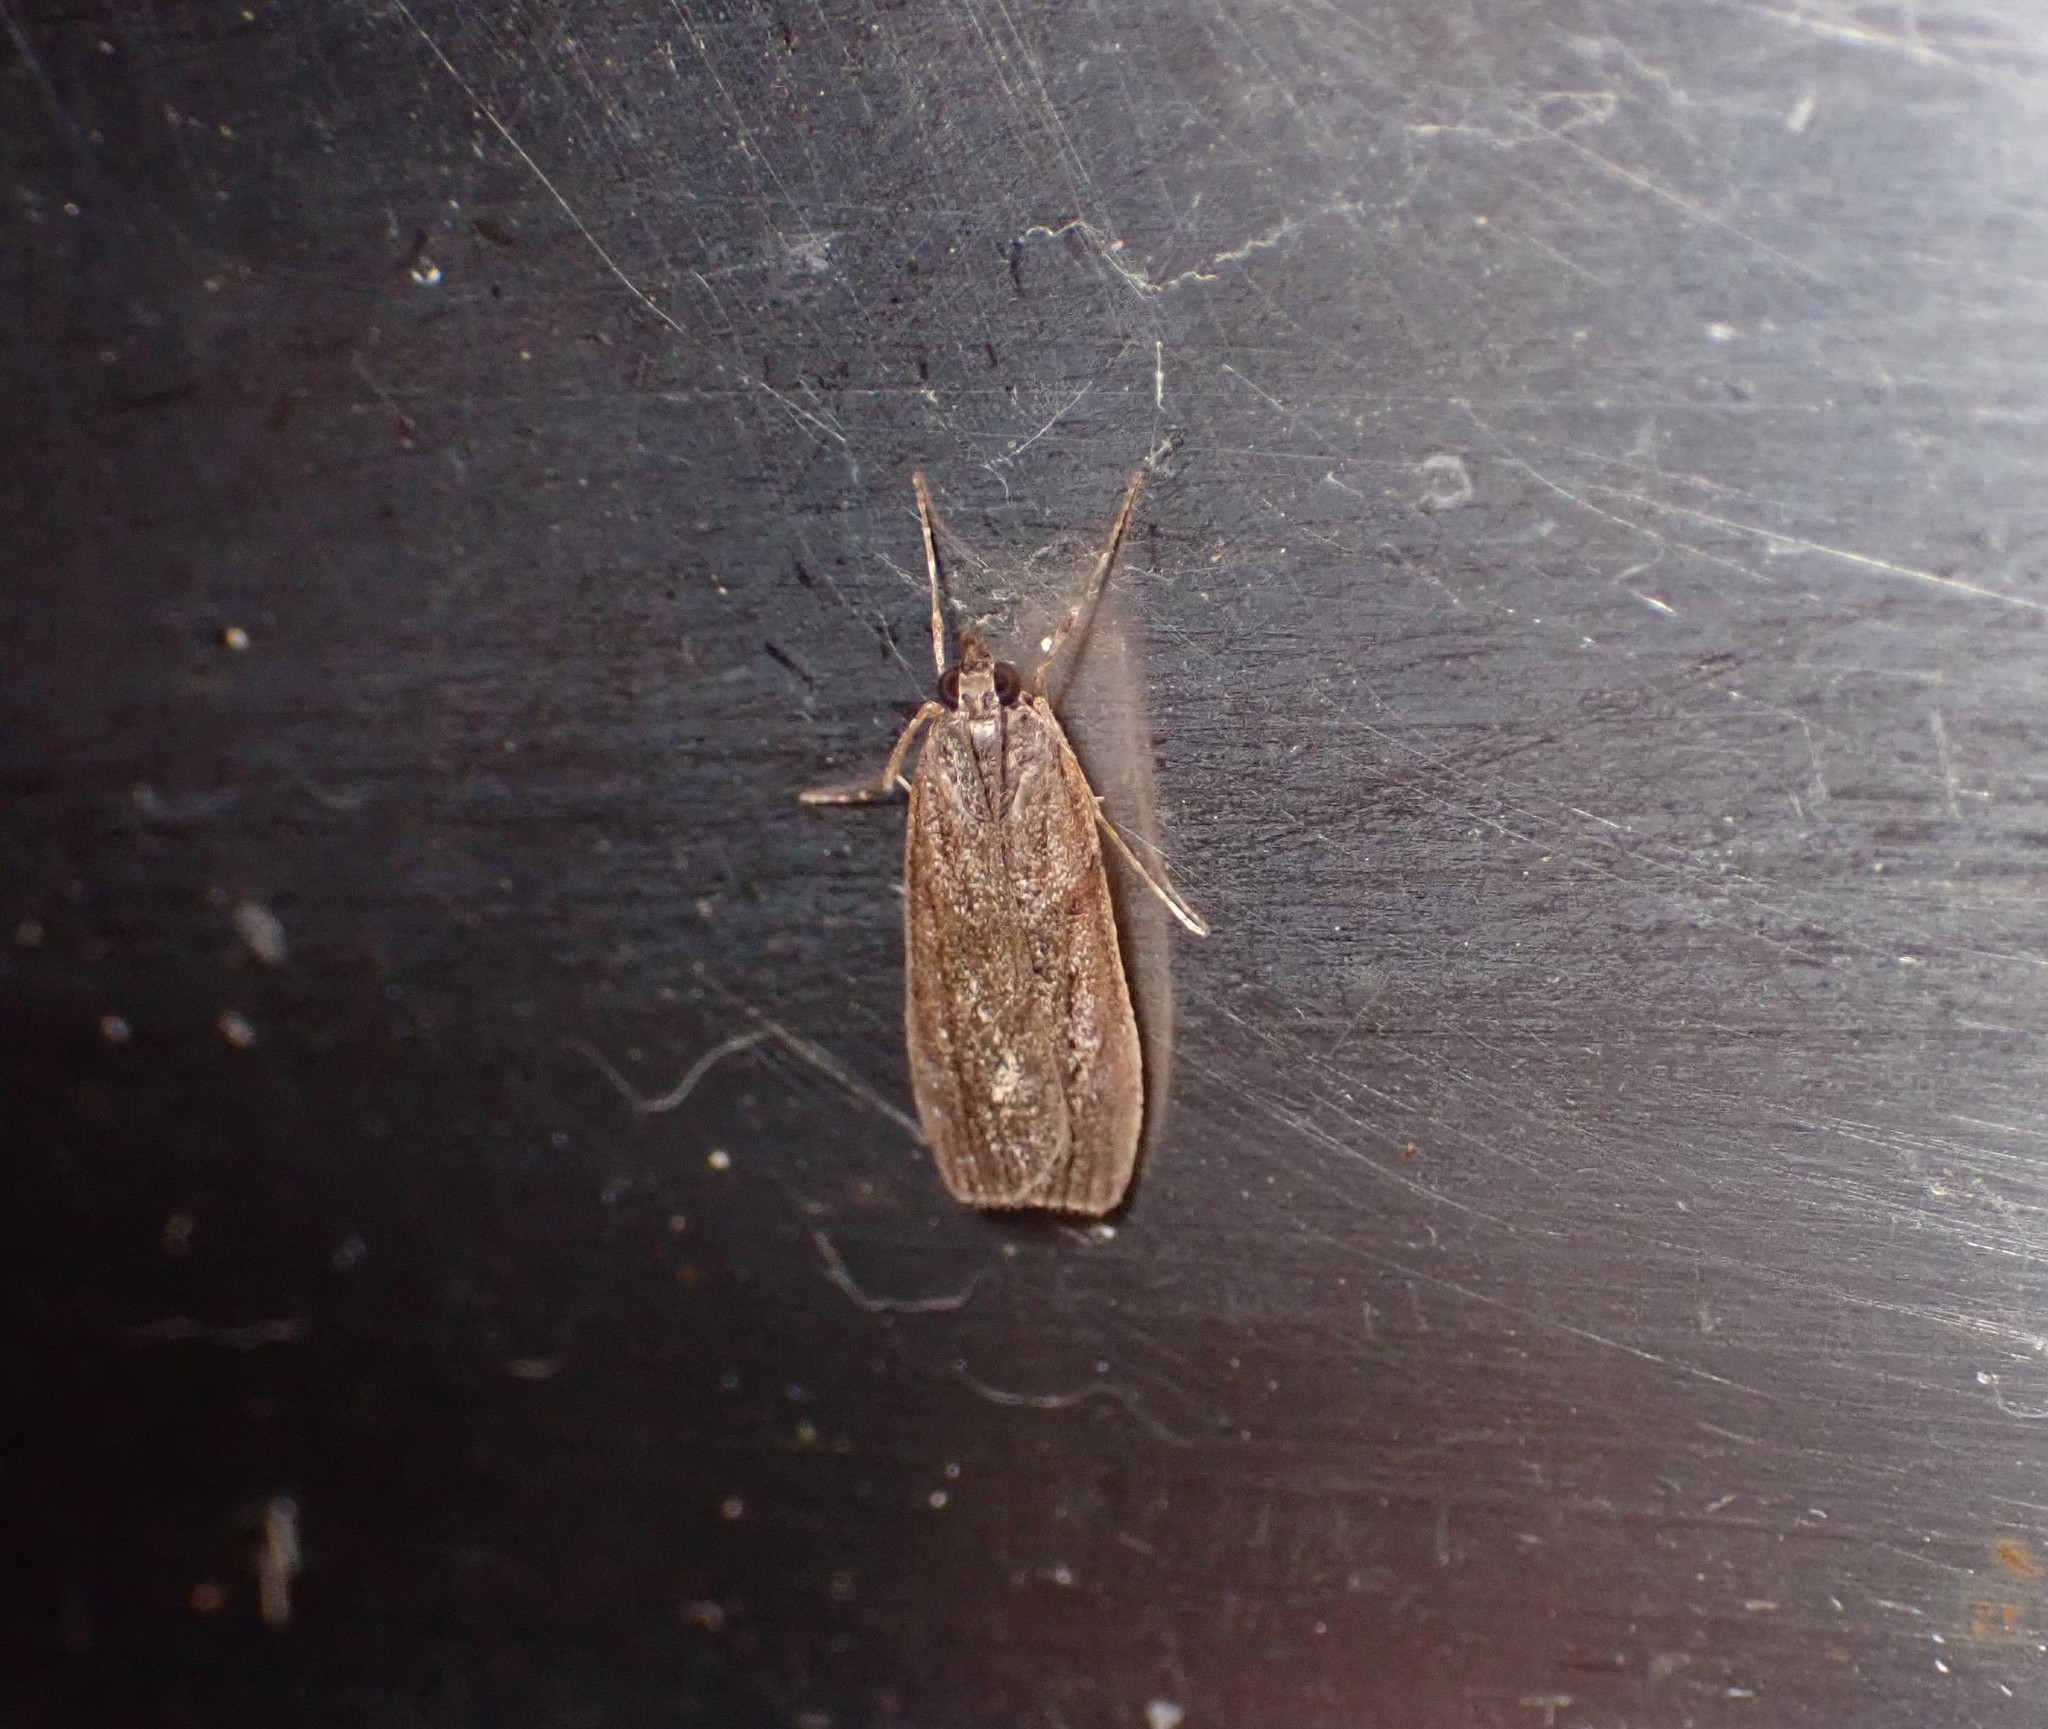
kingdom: Animalia
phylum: Arthropoda
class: Insecta
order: Lepidoptera
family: Crambidae
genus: Eudonia
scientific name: Eudonia submarginalis
